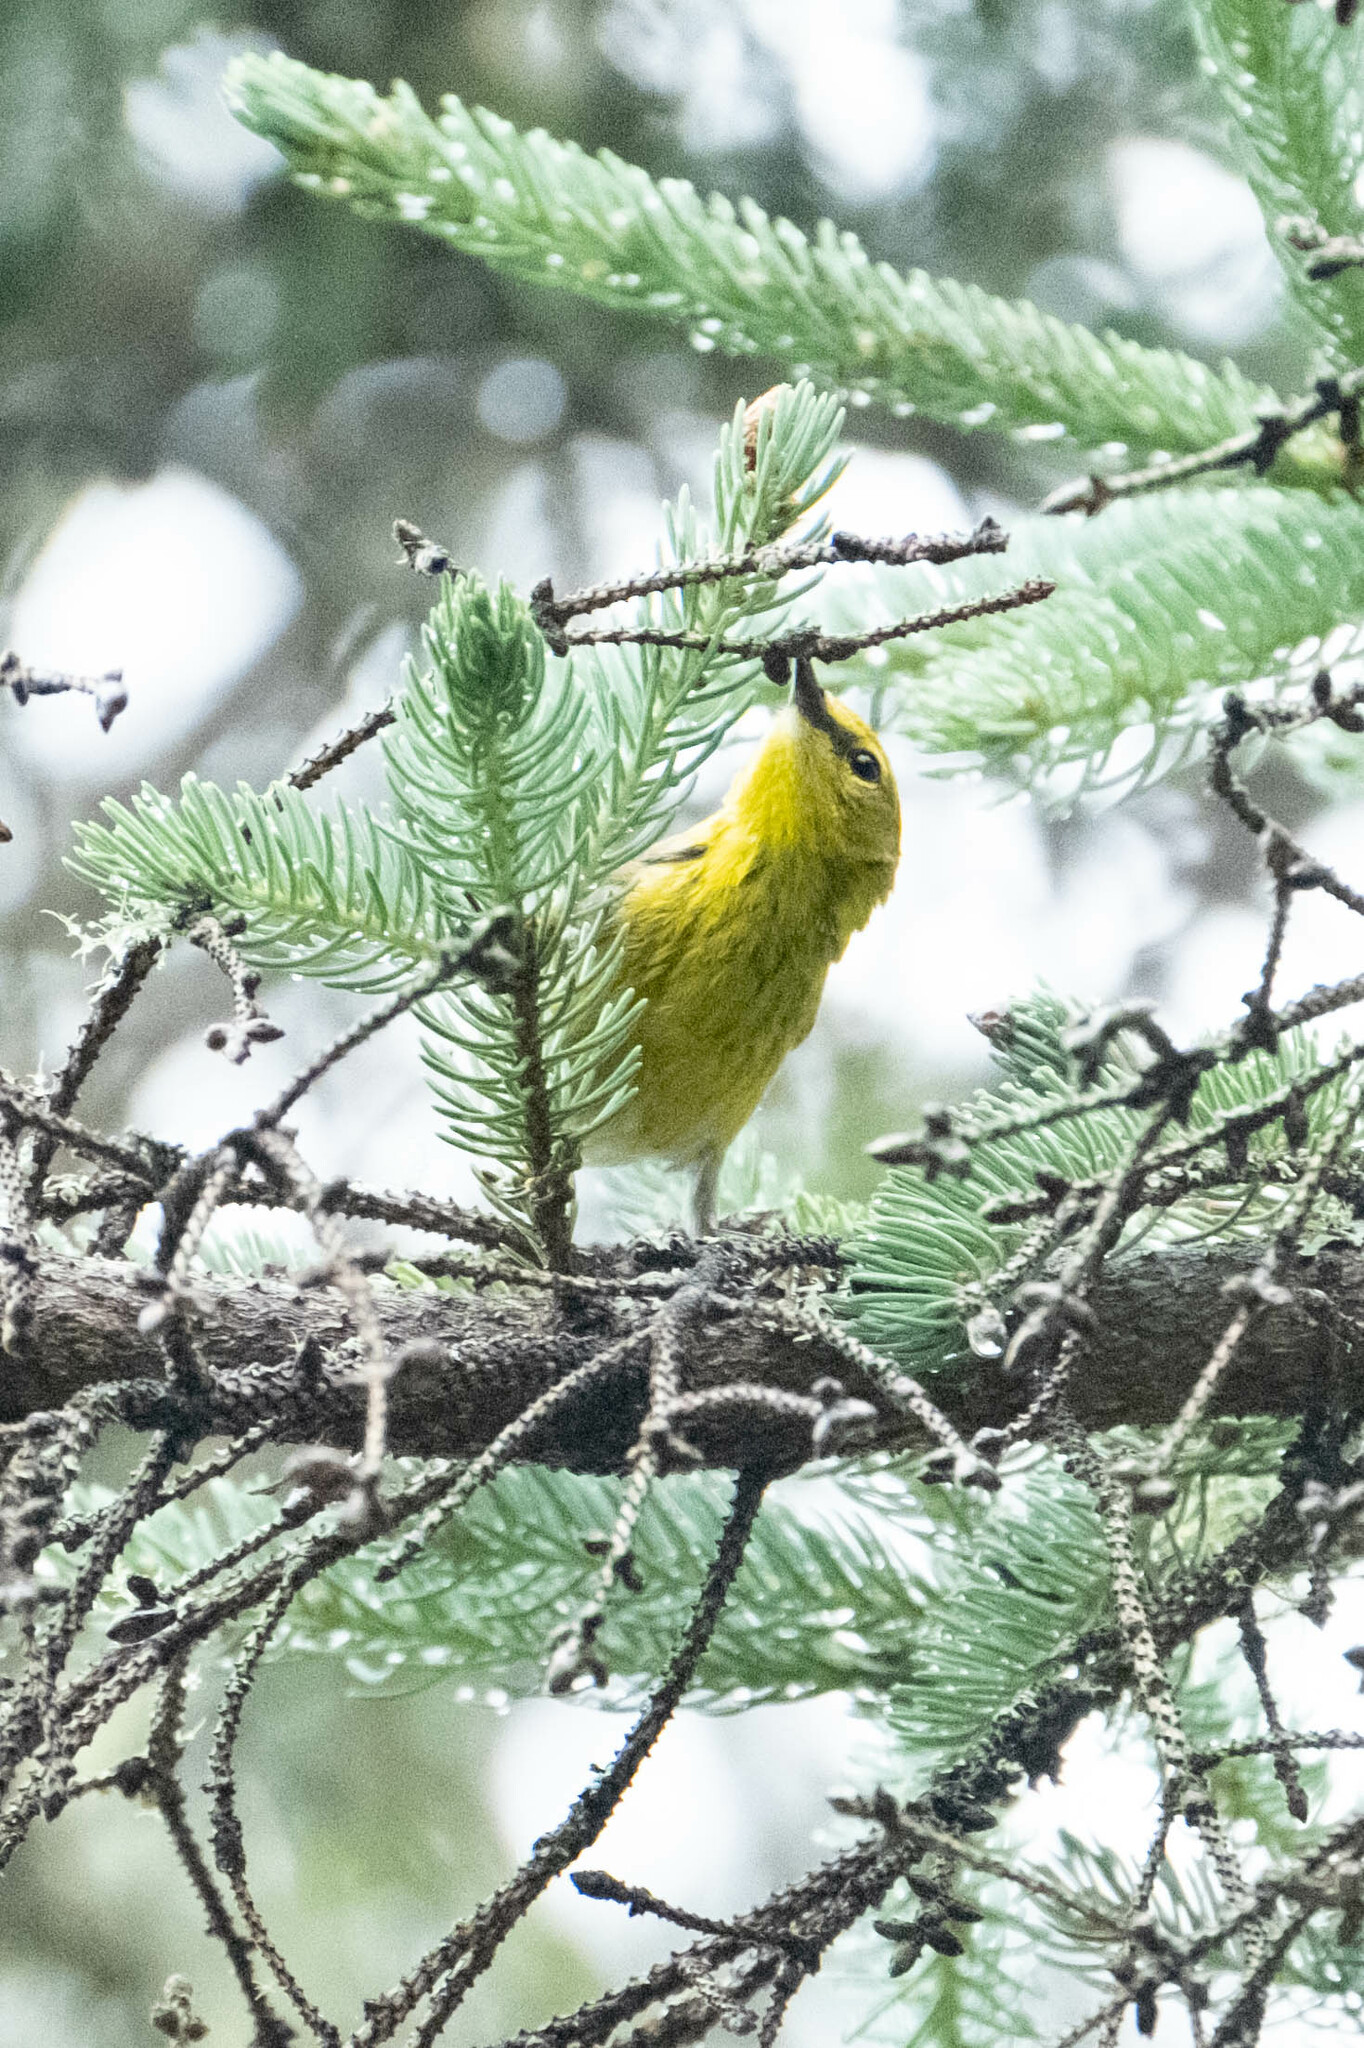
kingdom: Animalia
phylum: Chordata
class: Aves
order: Passeriformes
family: Parulidae
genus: Setophaga
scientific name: Setophaga pinus
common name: Pine warbler
